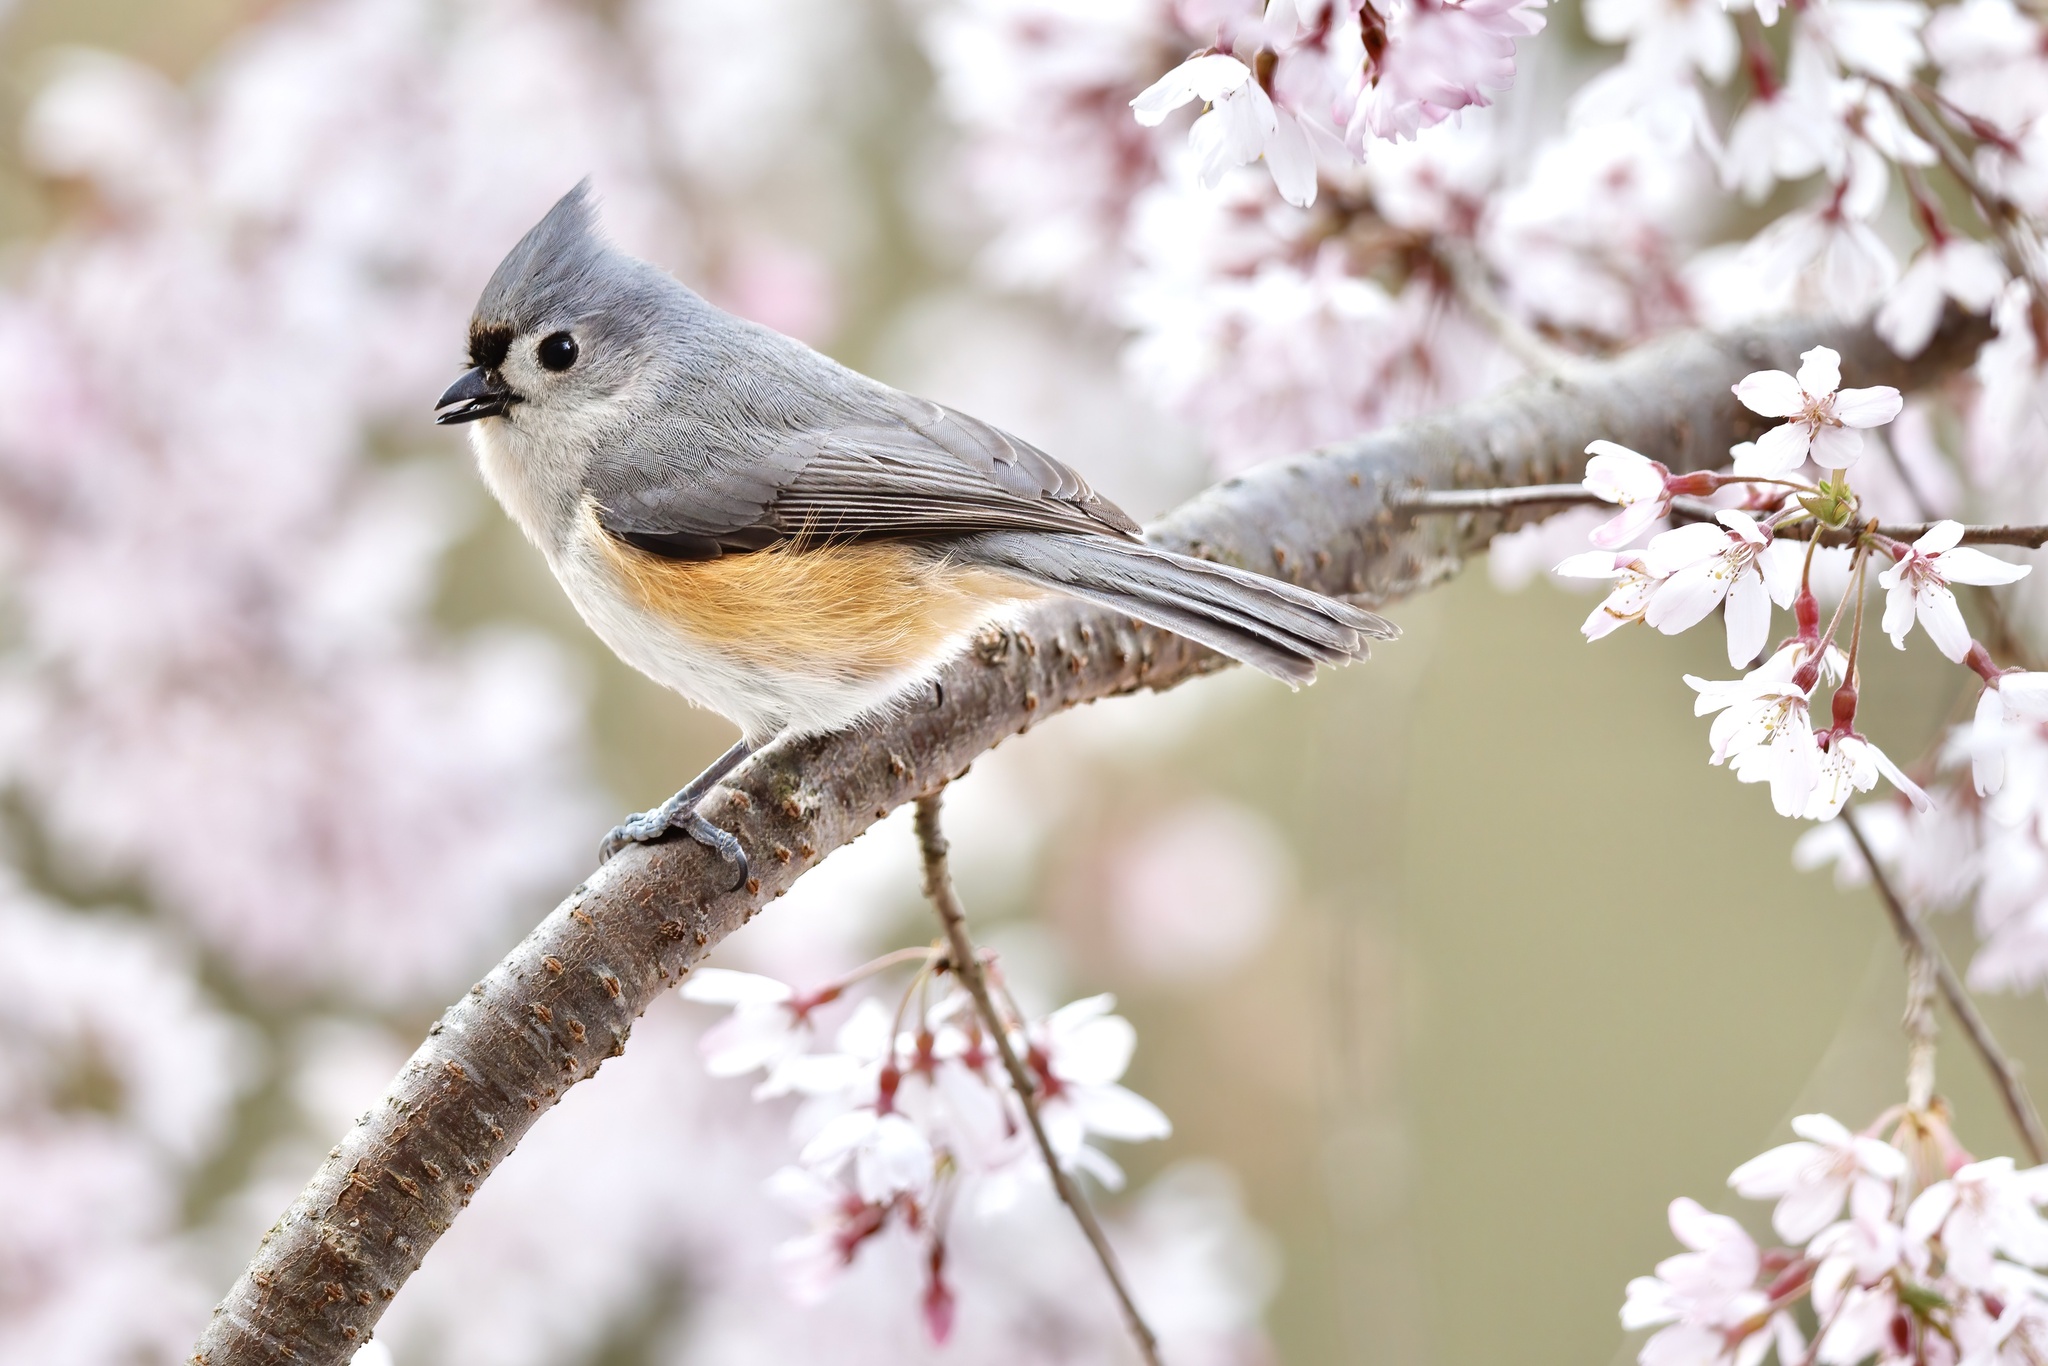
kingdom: Animalia
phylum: Chordata
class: Aves
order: Passeriformes
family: Paridae
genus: Baeolophus
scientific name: Baeolophus bicolor
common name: Tufted titmouse
